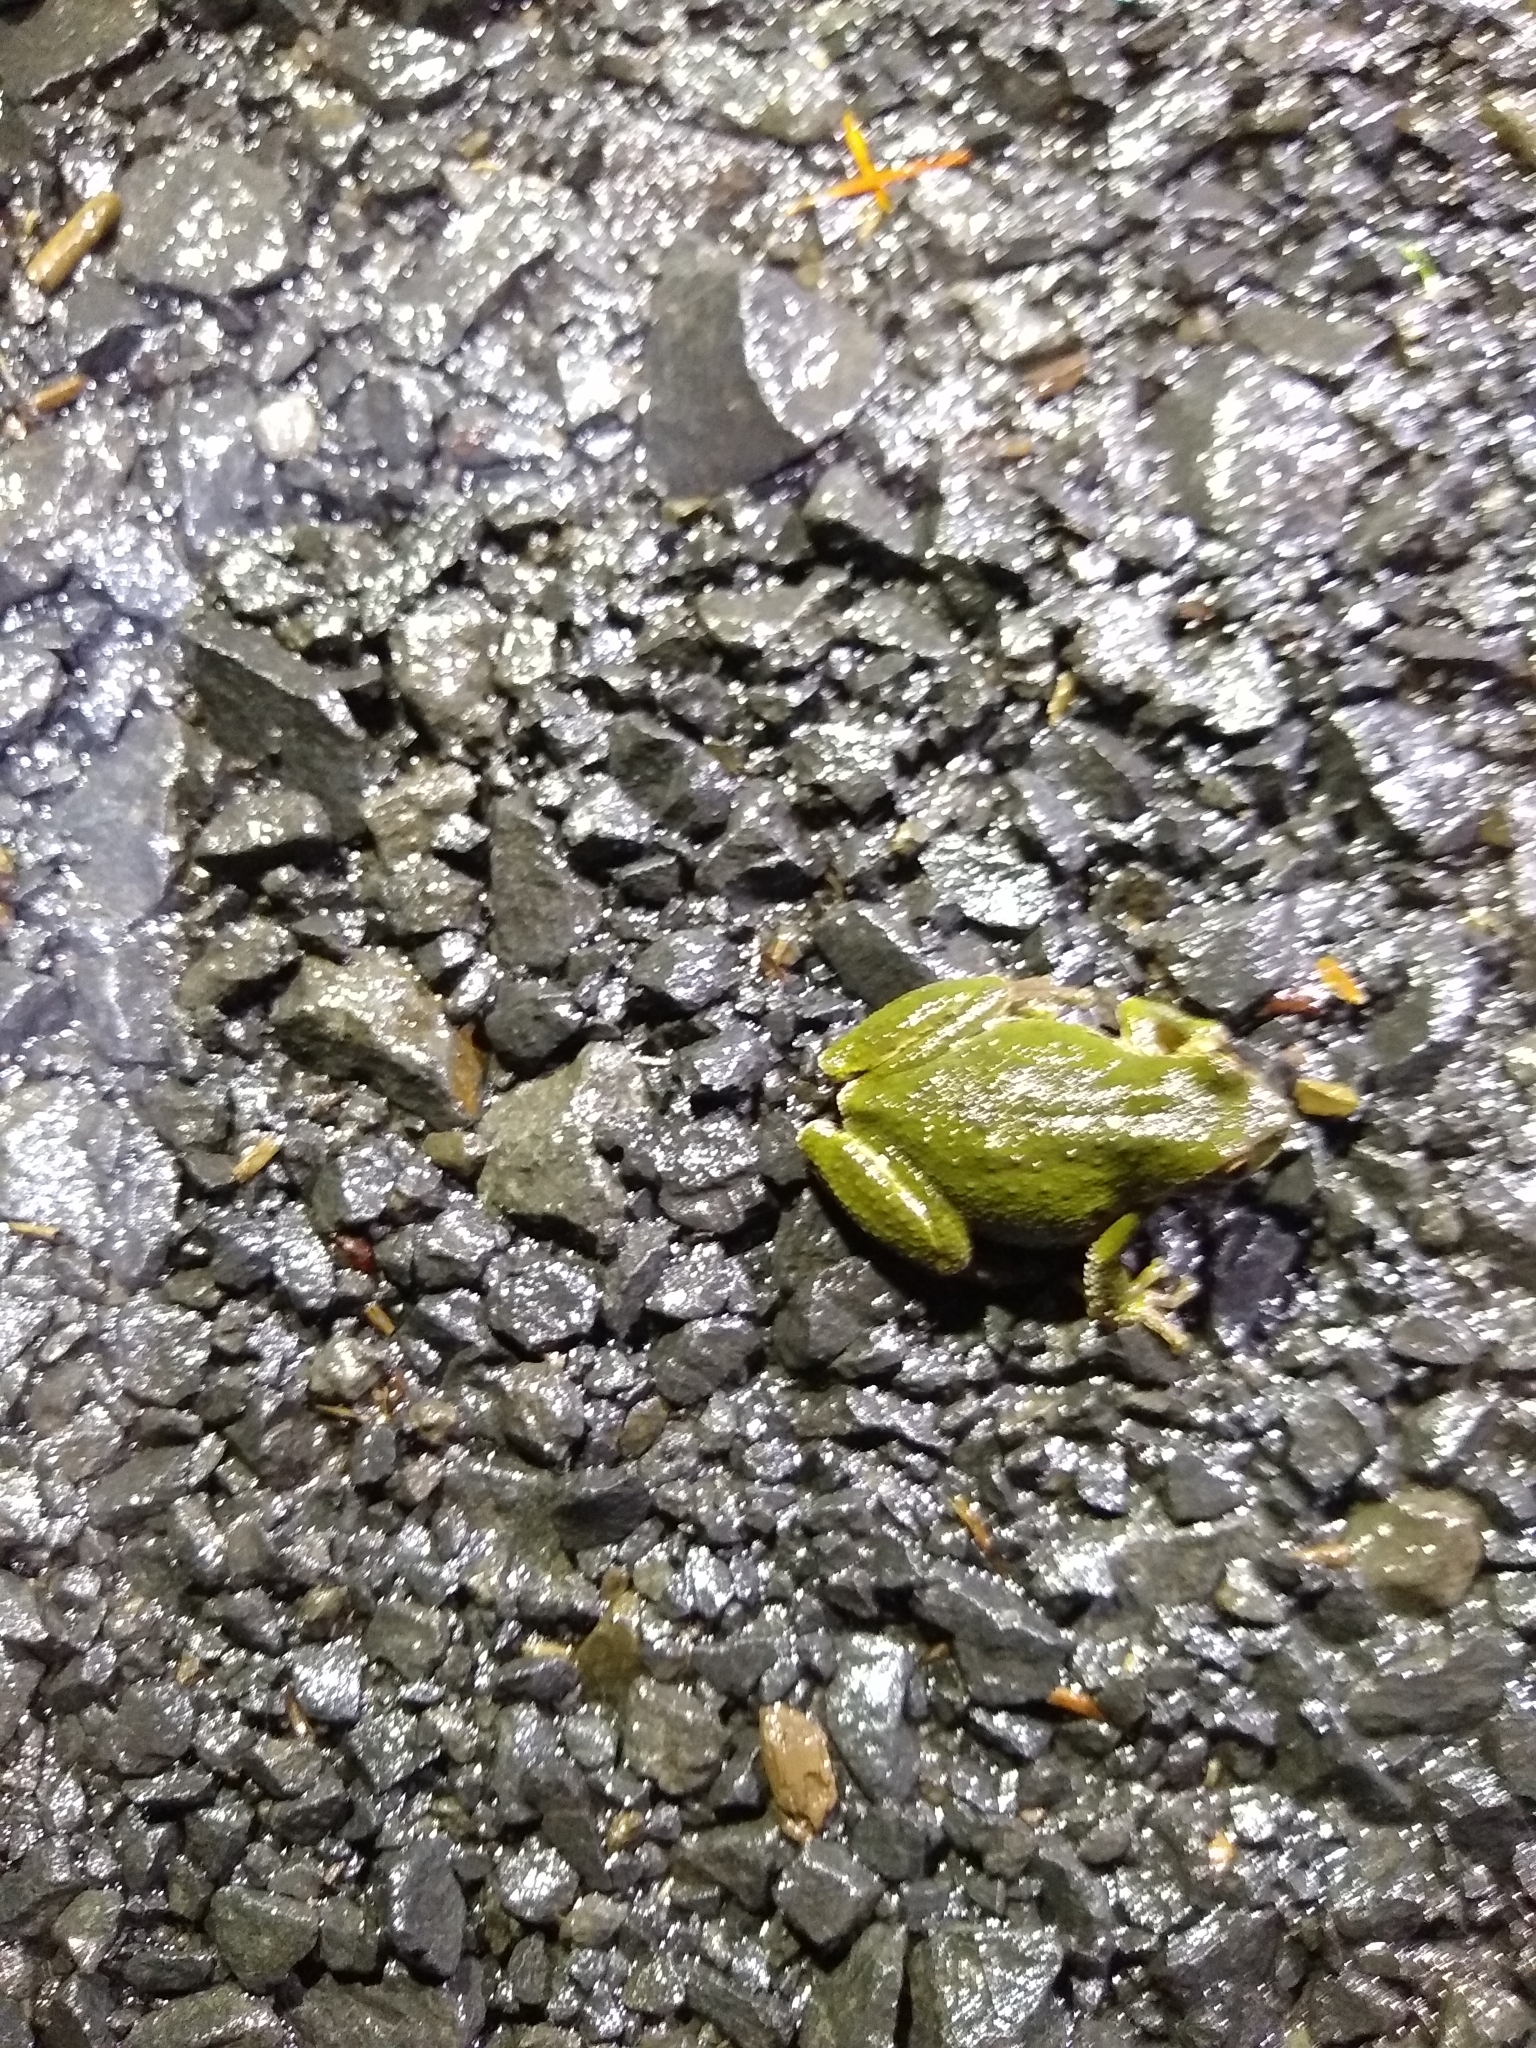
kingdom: Animalia
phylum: Chordata
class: Amphibia
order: Anura
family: Hylidae
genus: Pseudacris
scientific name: Pseudacris regilla
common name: Pacific chorus frog
